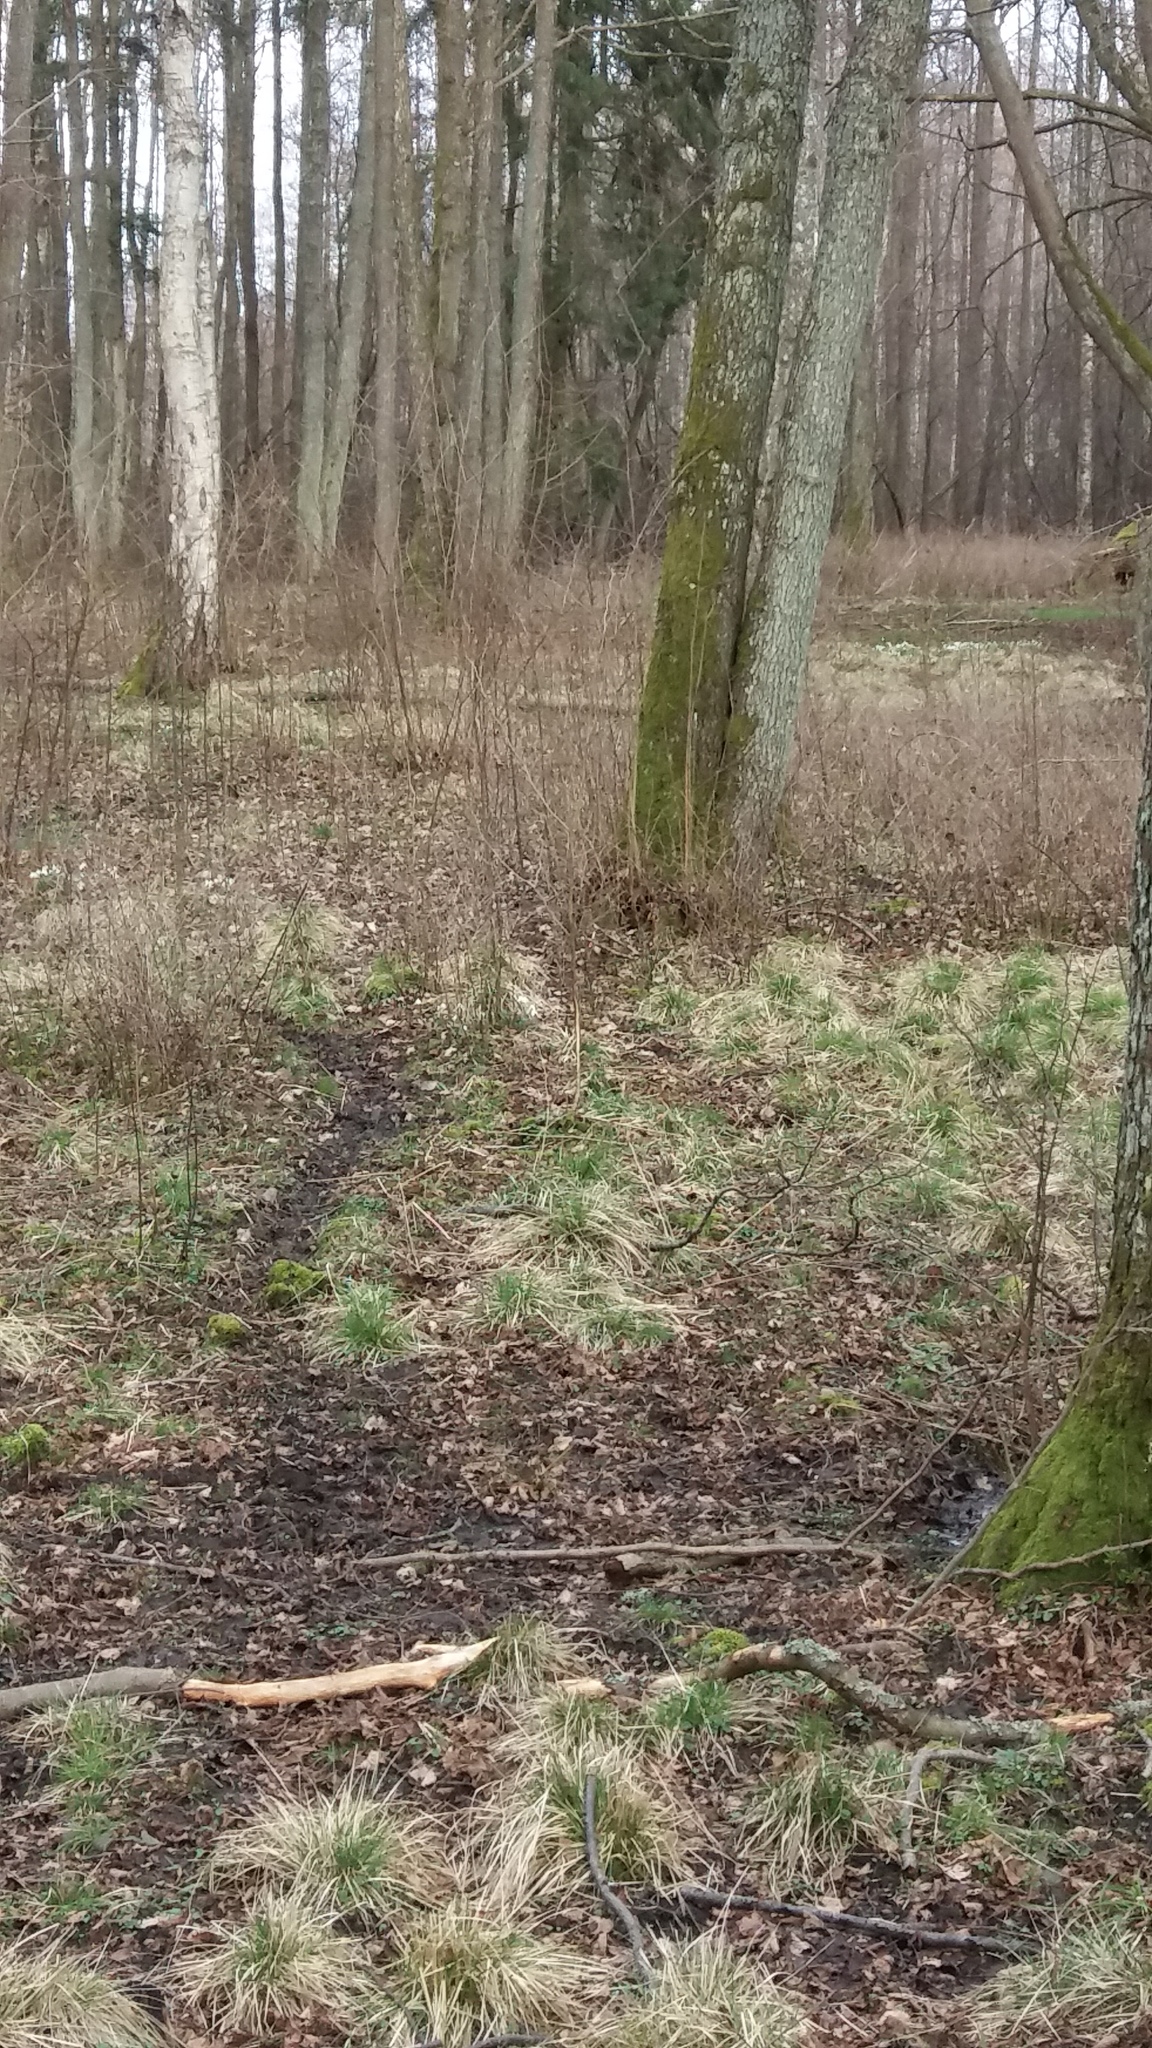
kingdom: Plantae
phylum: Tracheophyta
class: Liliopsida
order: Asparagales
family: Amaryllidaceae
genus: Galanthus
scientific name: Galanthus nivalis
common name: Snowdrop
